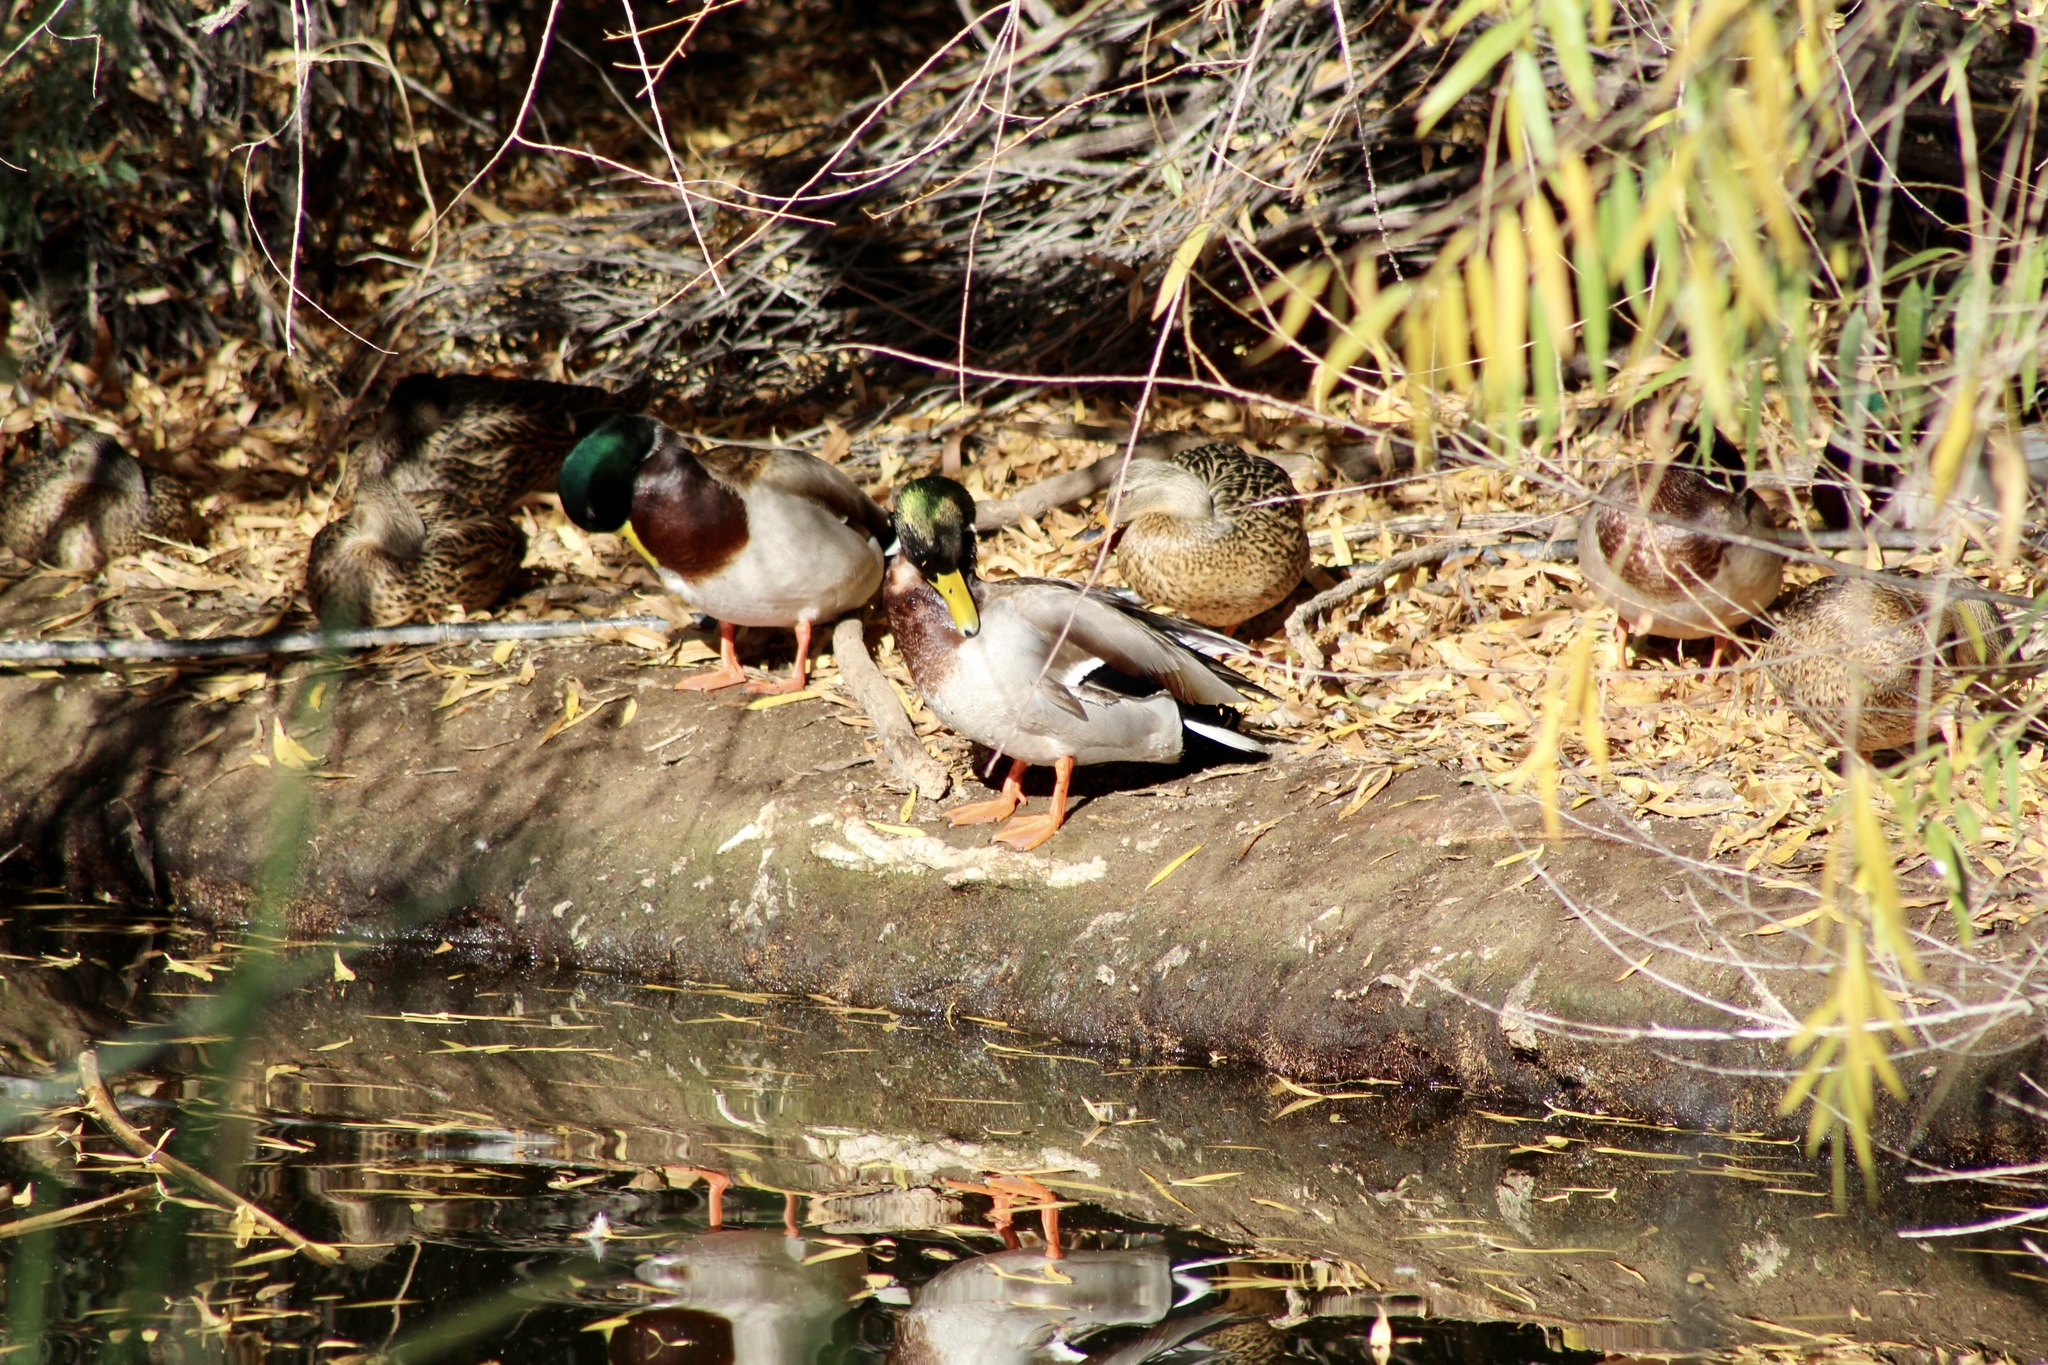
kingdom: Animalia
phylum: Chordata
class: Aves
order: Anseriformes
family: Anatidae
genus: Anas
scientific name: Anas platyrhynchos
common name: Mallard
